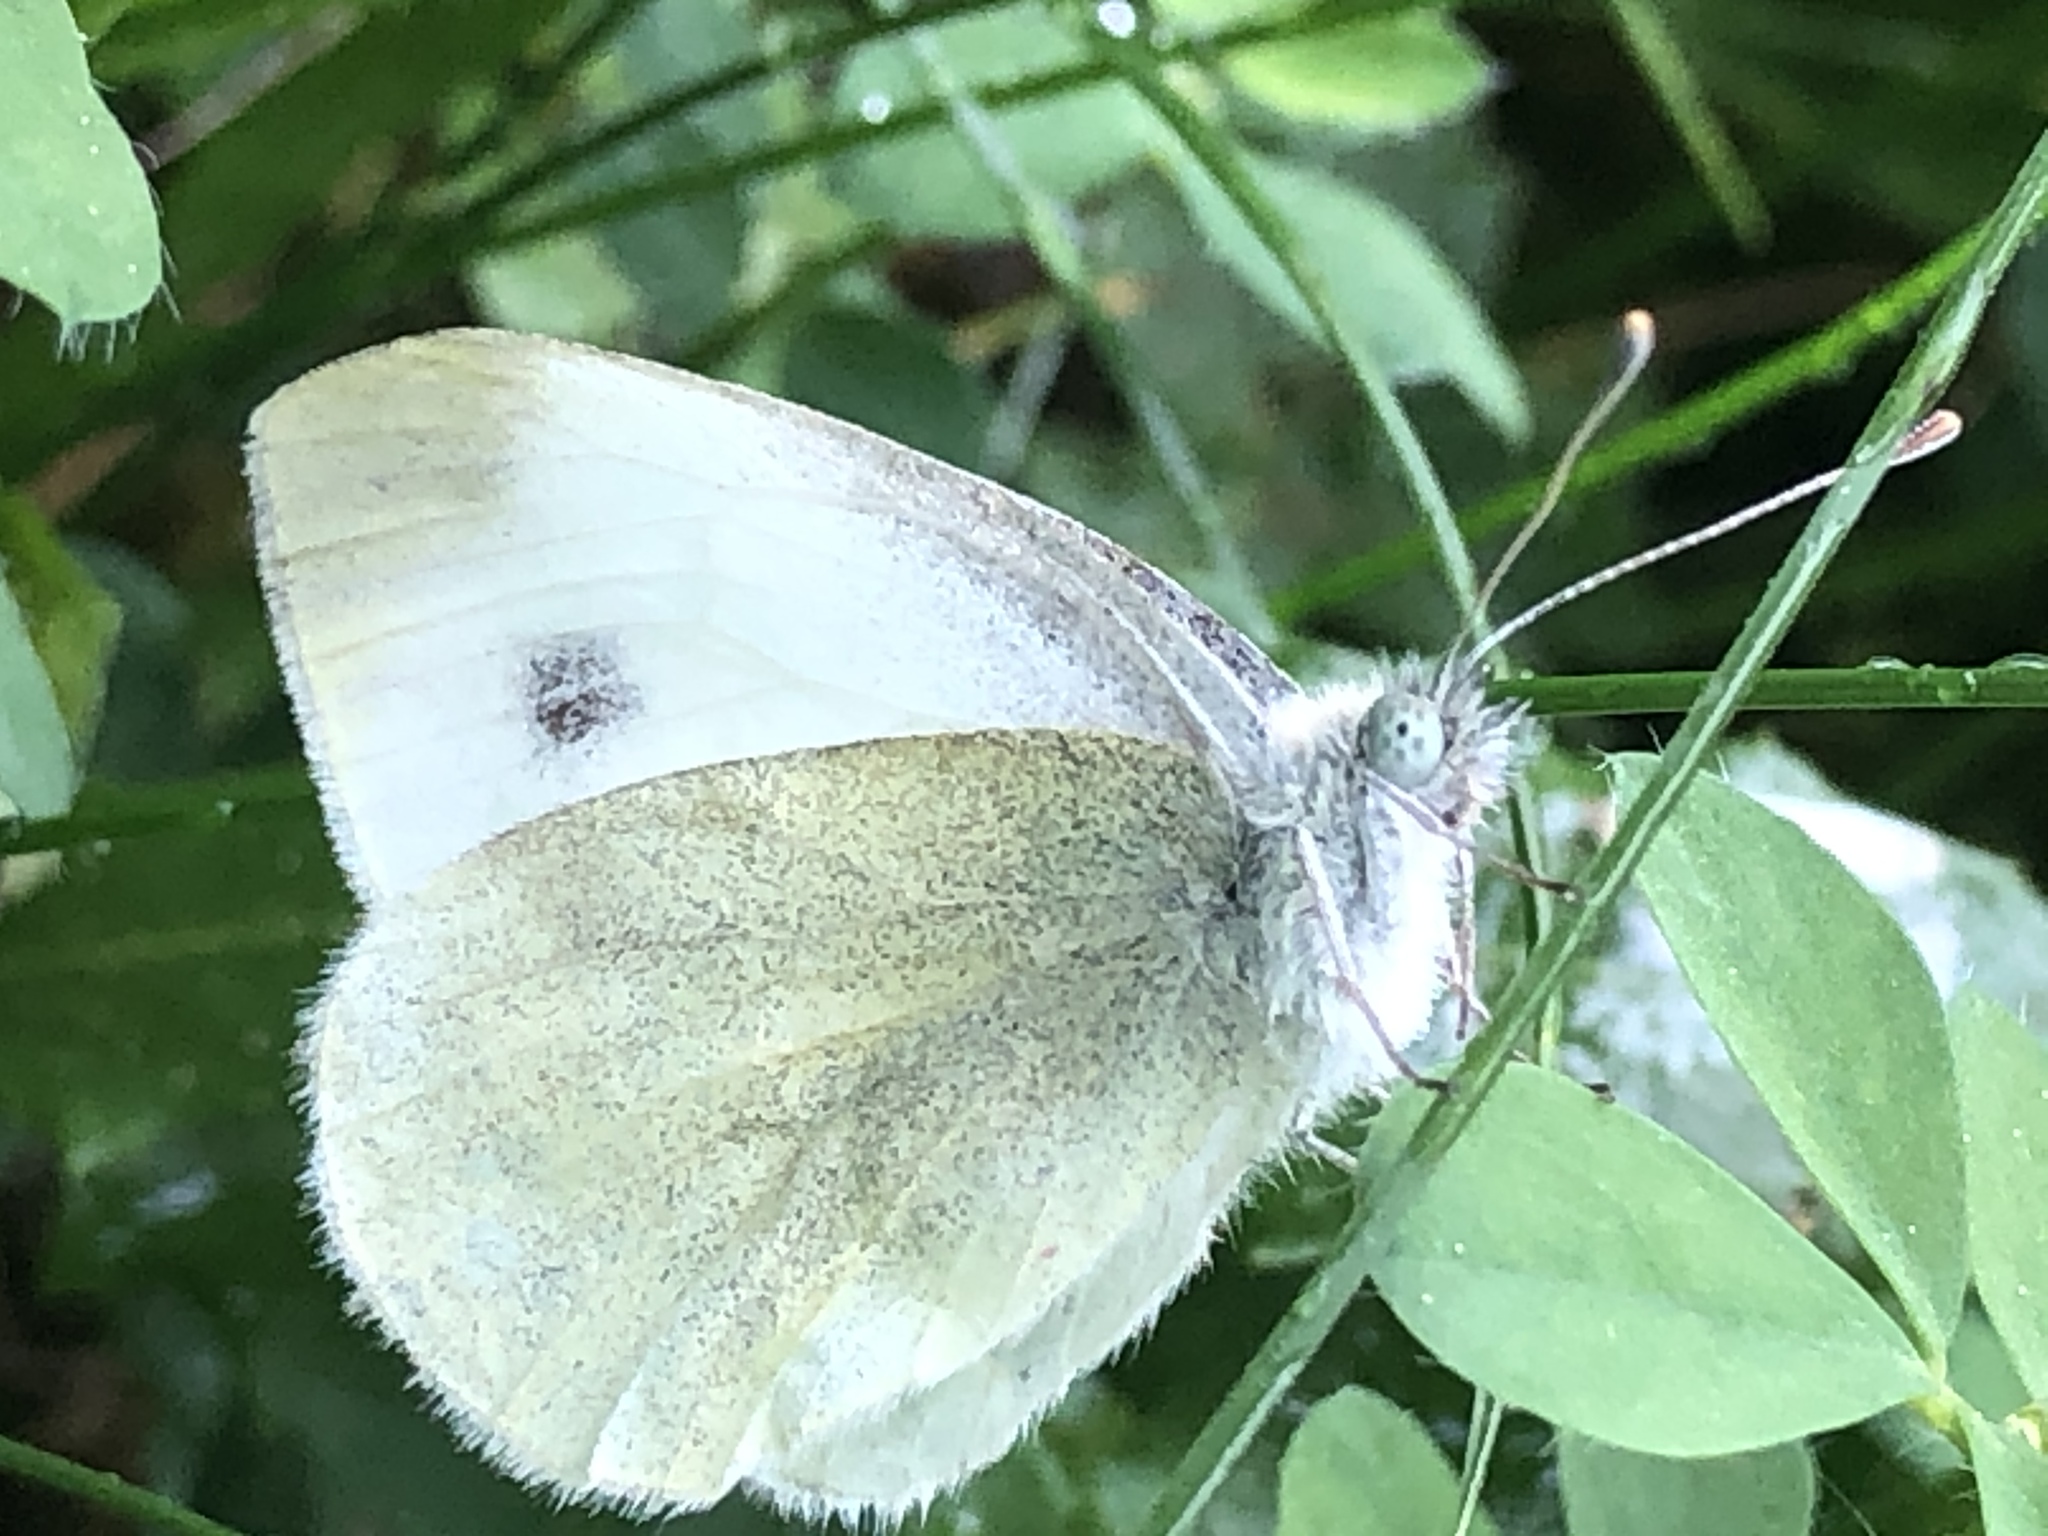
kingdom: Animalia
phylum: Arthropoda
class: Insecta
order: Lepidoptera
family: Pieridae
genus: Pieris
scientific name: Pieris mannii
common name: Southern small white
